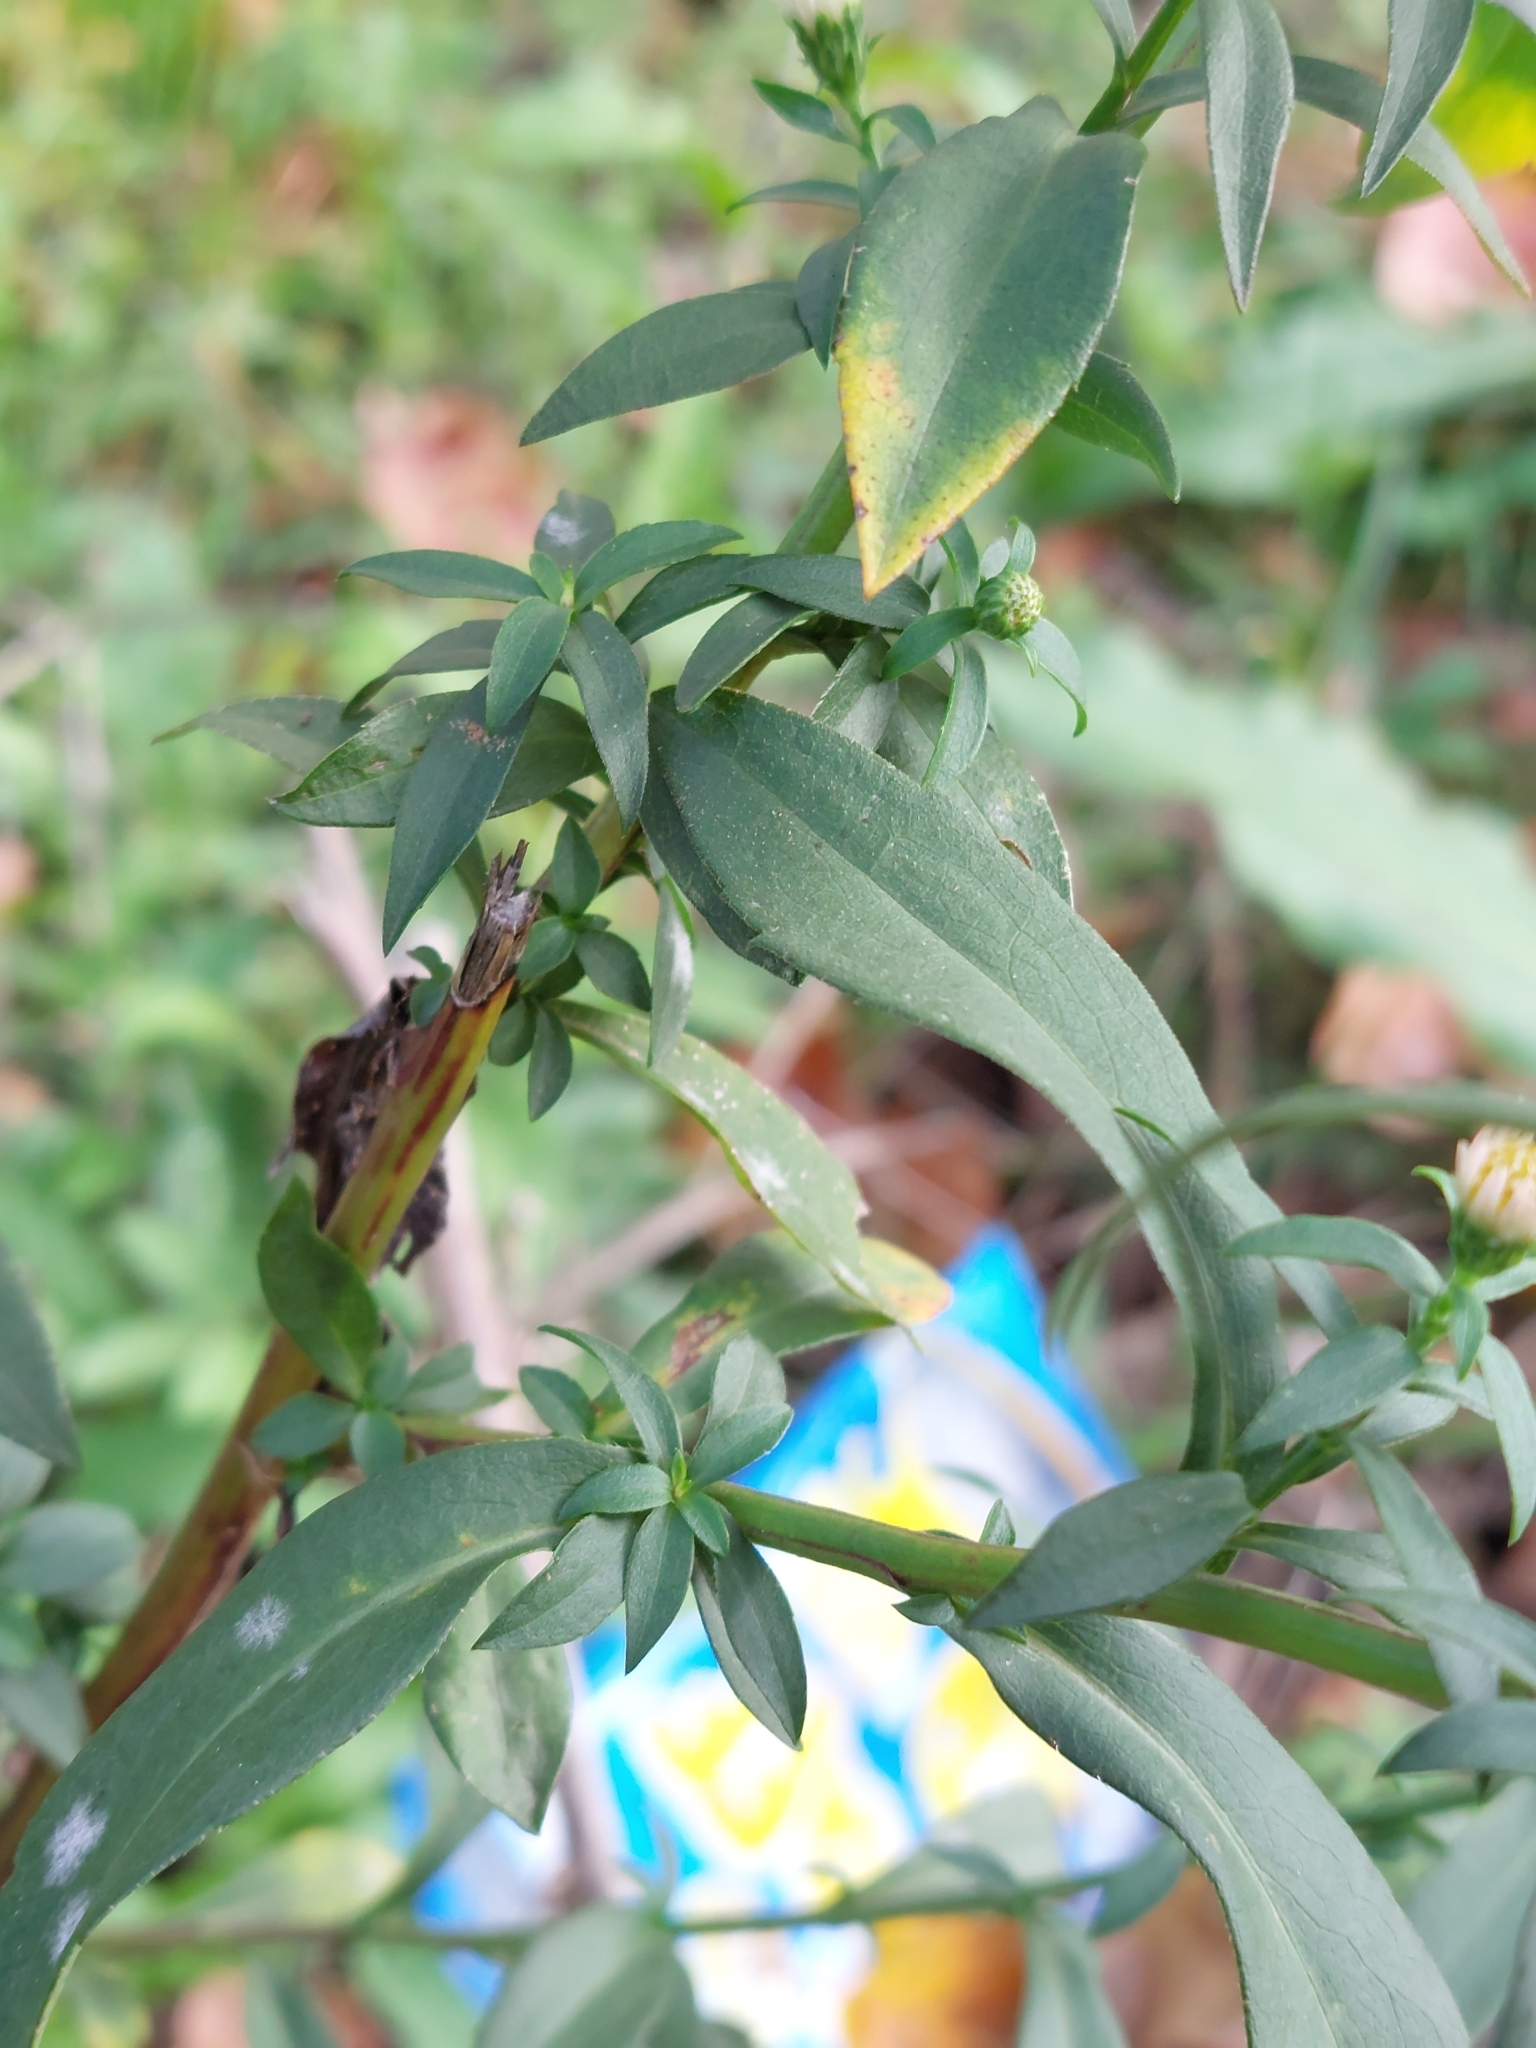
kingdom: Plantae
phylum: Tracheophyta
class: Magnoliopsida
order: Asterales
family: Asteraceae
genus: Symphyotrichum
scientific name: Symphyotrichum lanceolatum
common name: Panicled aster
